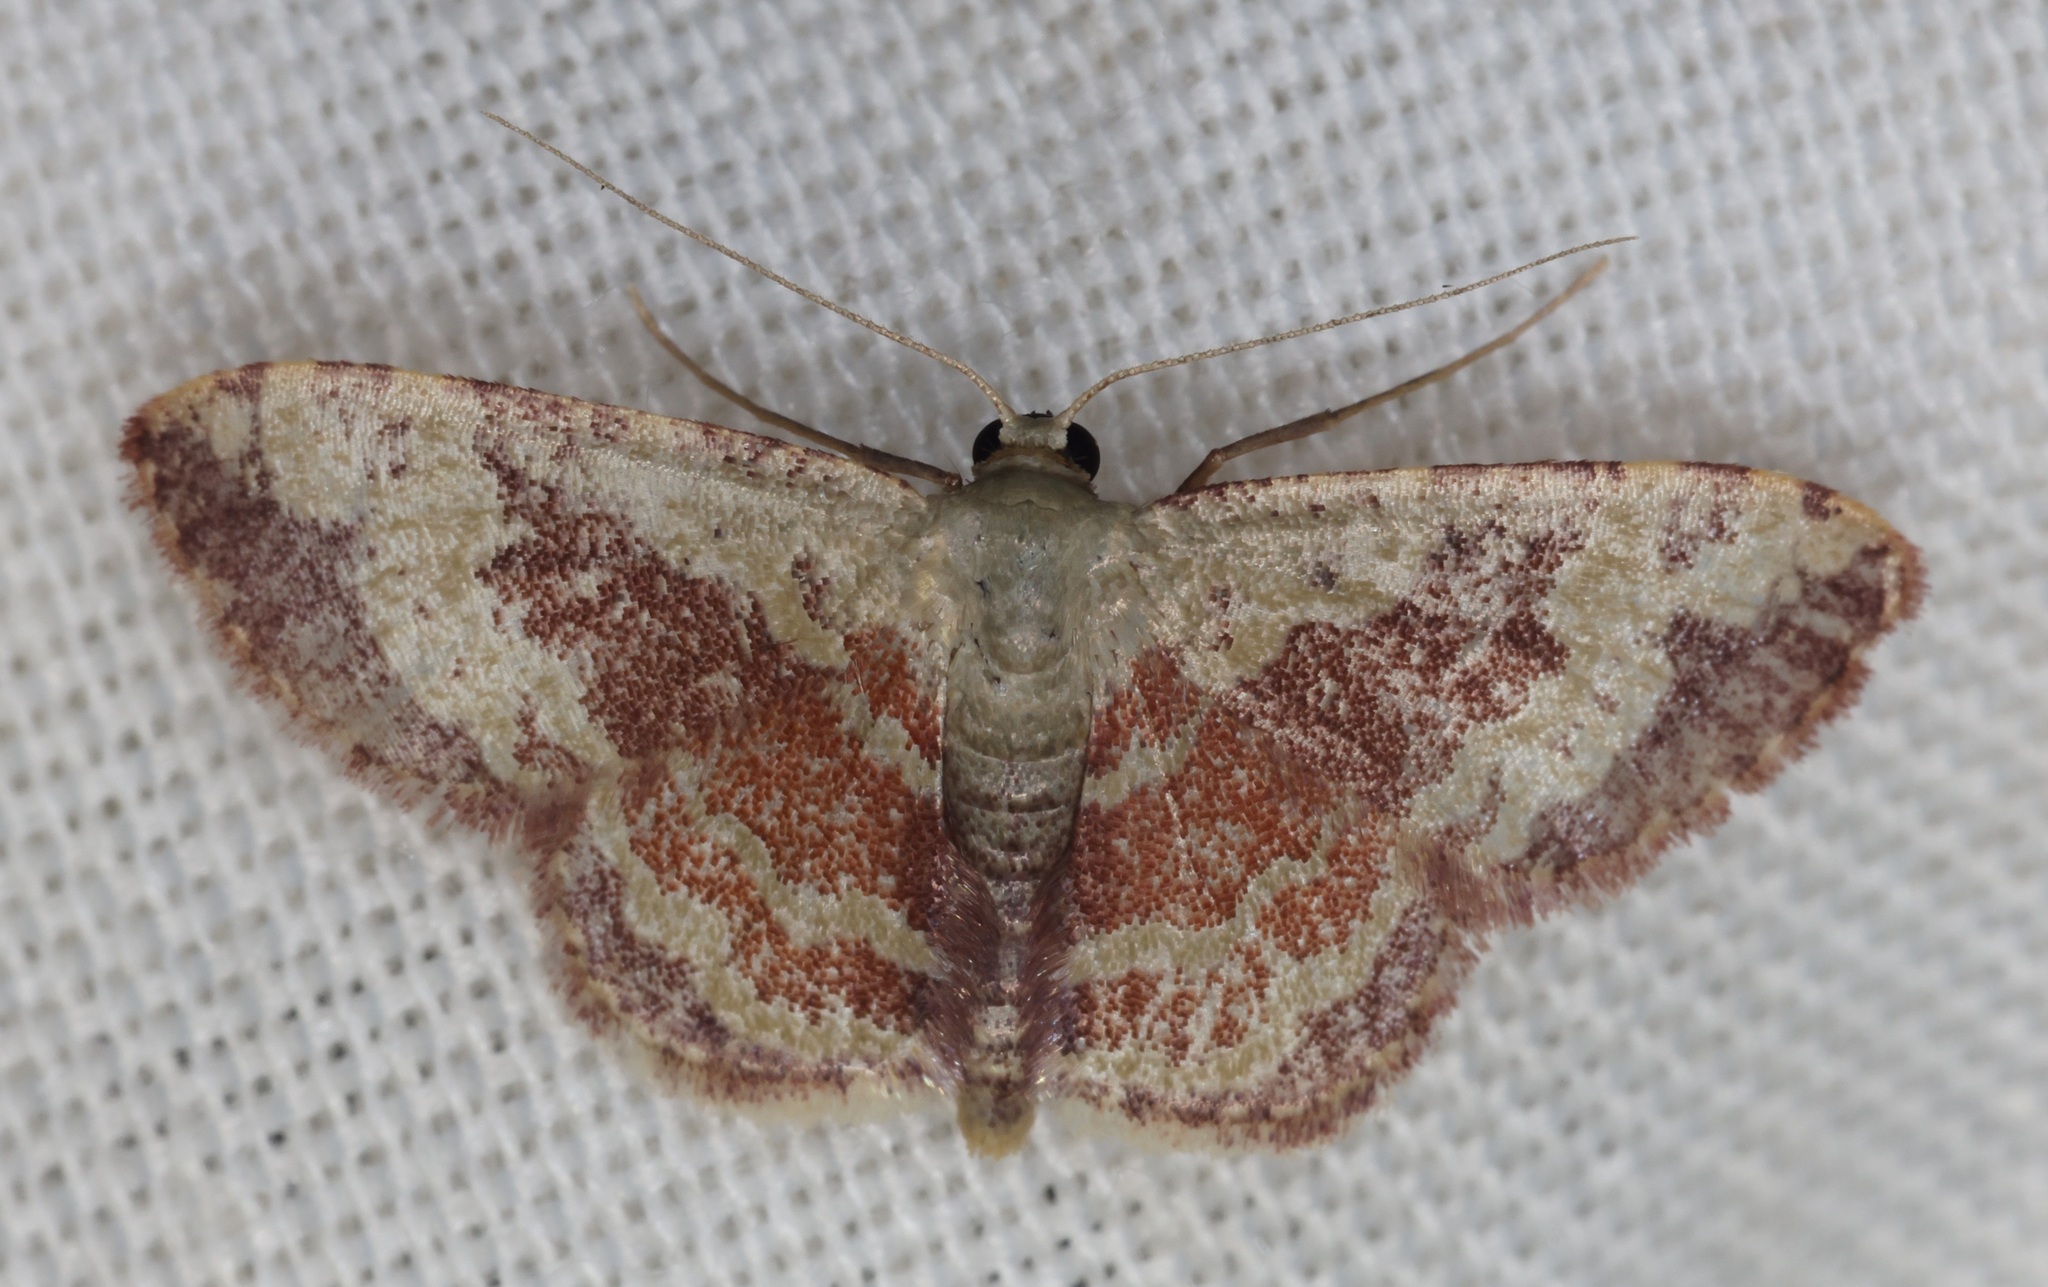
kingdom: Animalia
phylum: Arthropoda
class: Insecta
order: Lepidoptera
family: Geometridae
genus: Idaea
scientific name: Idaea vacillata
